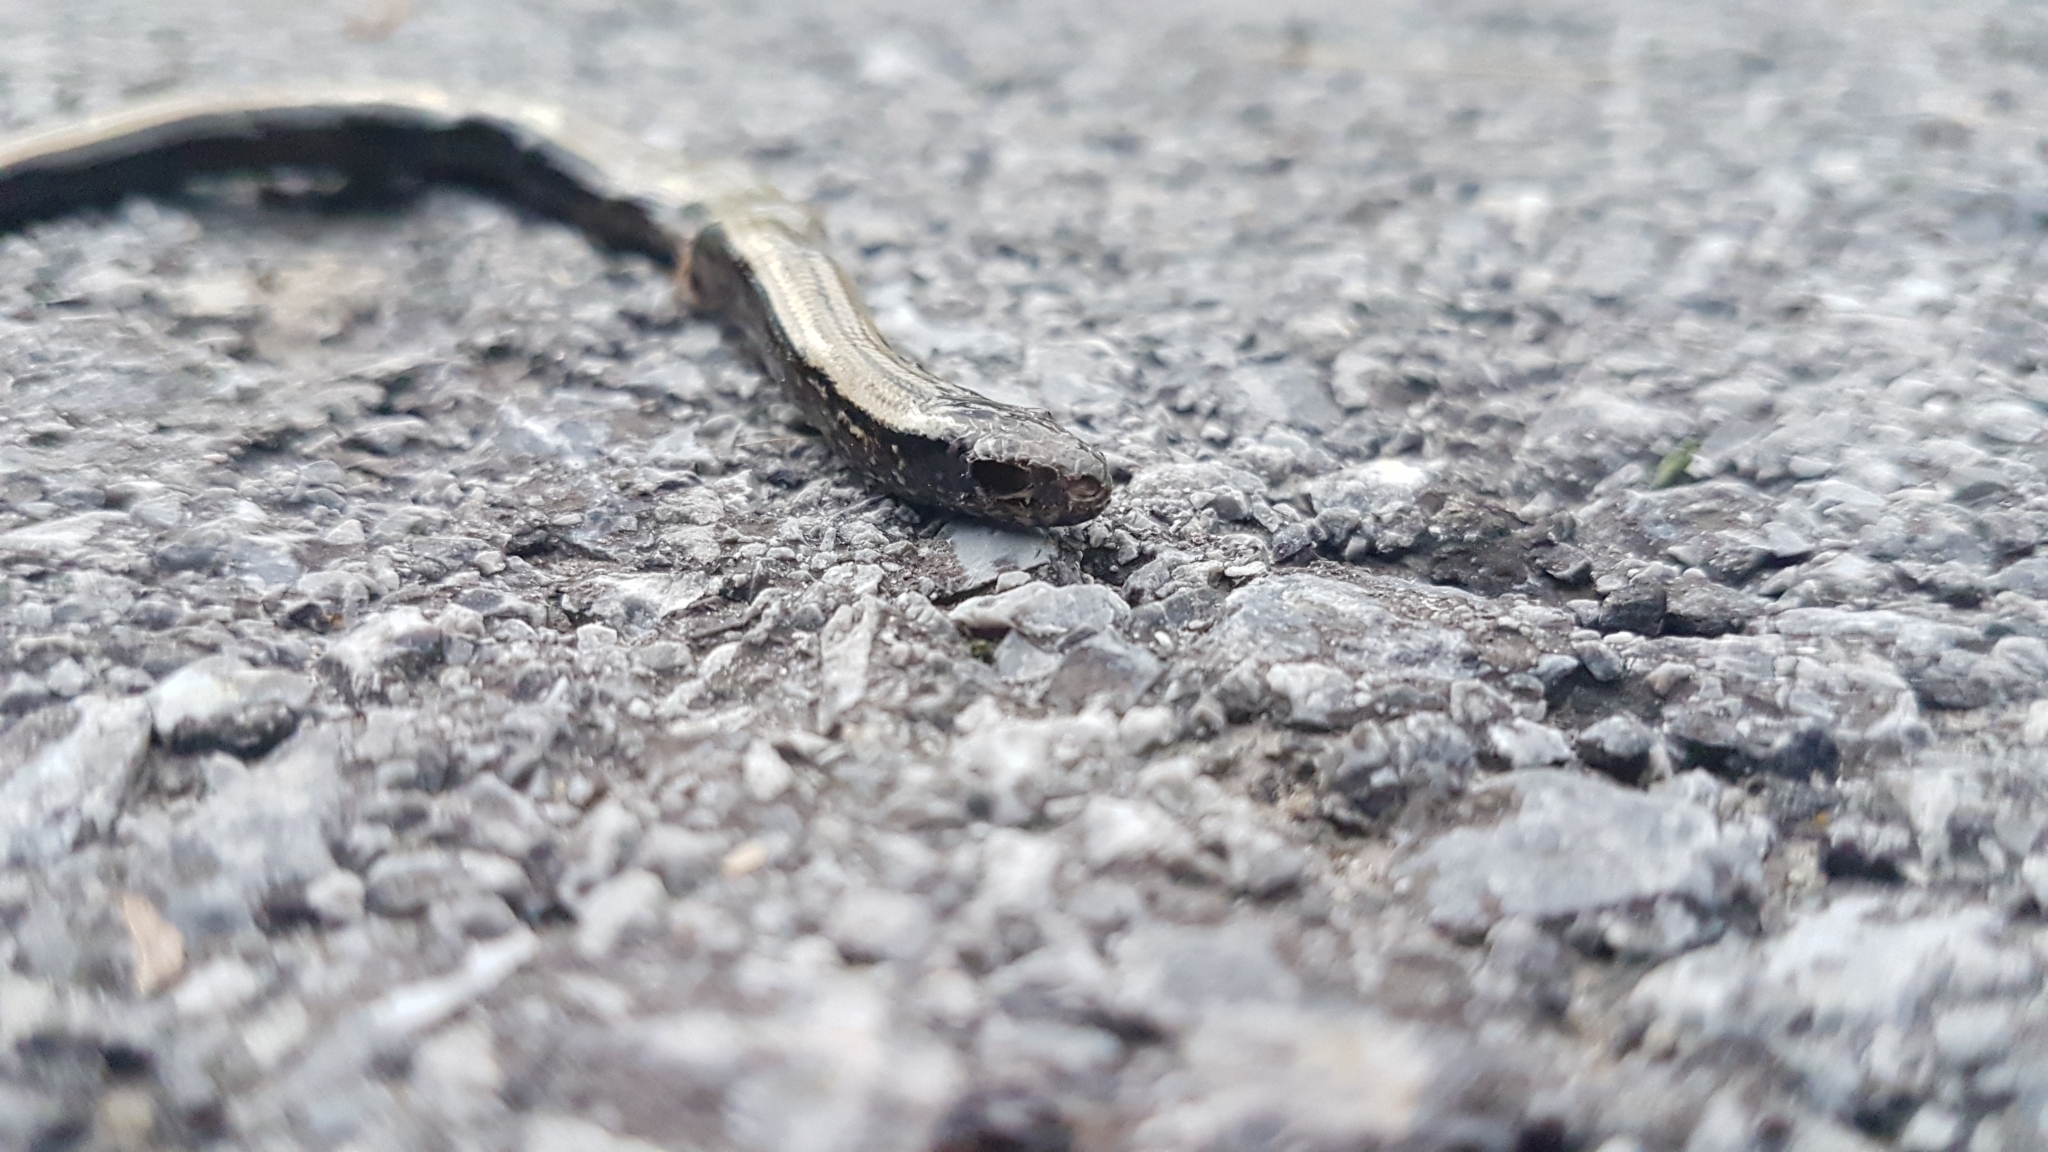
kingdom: Animalia
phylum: Chordata
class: Squamata
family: Anguidae
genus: Anguis
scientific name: Anguis fragilis
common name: Slow worm
